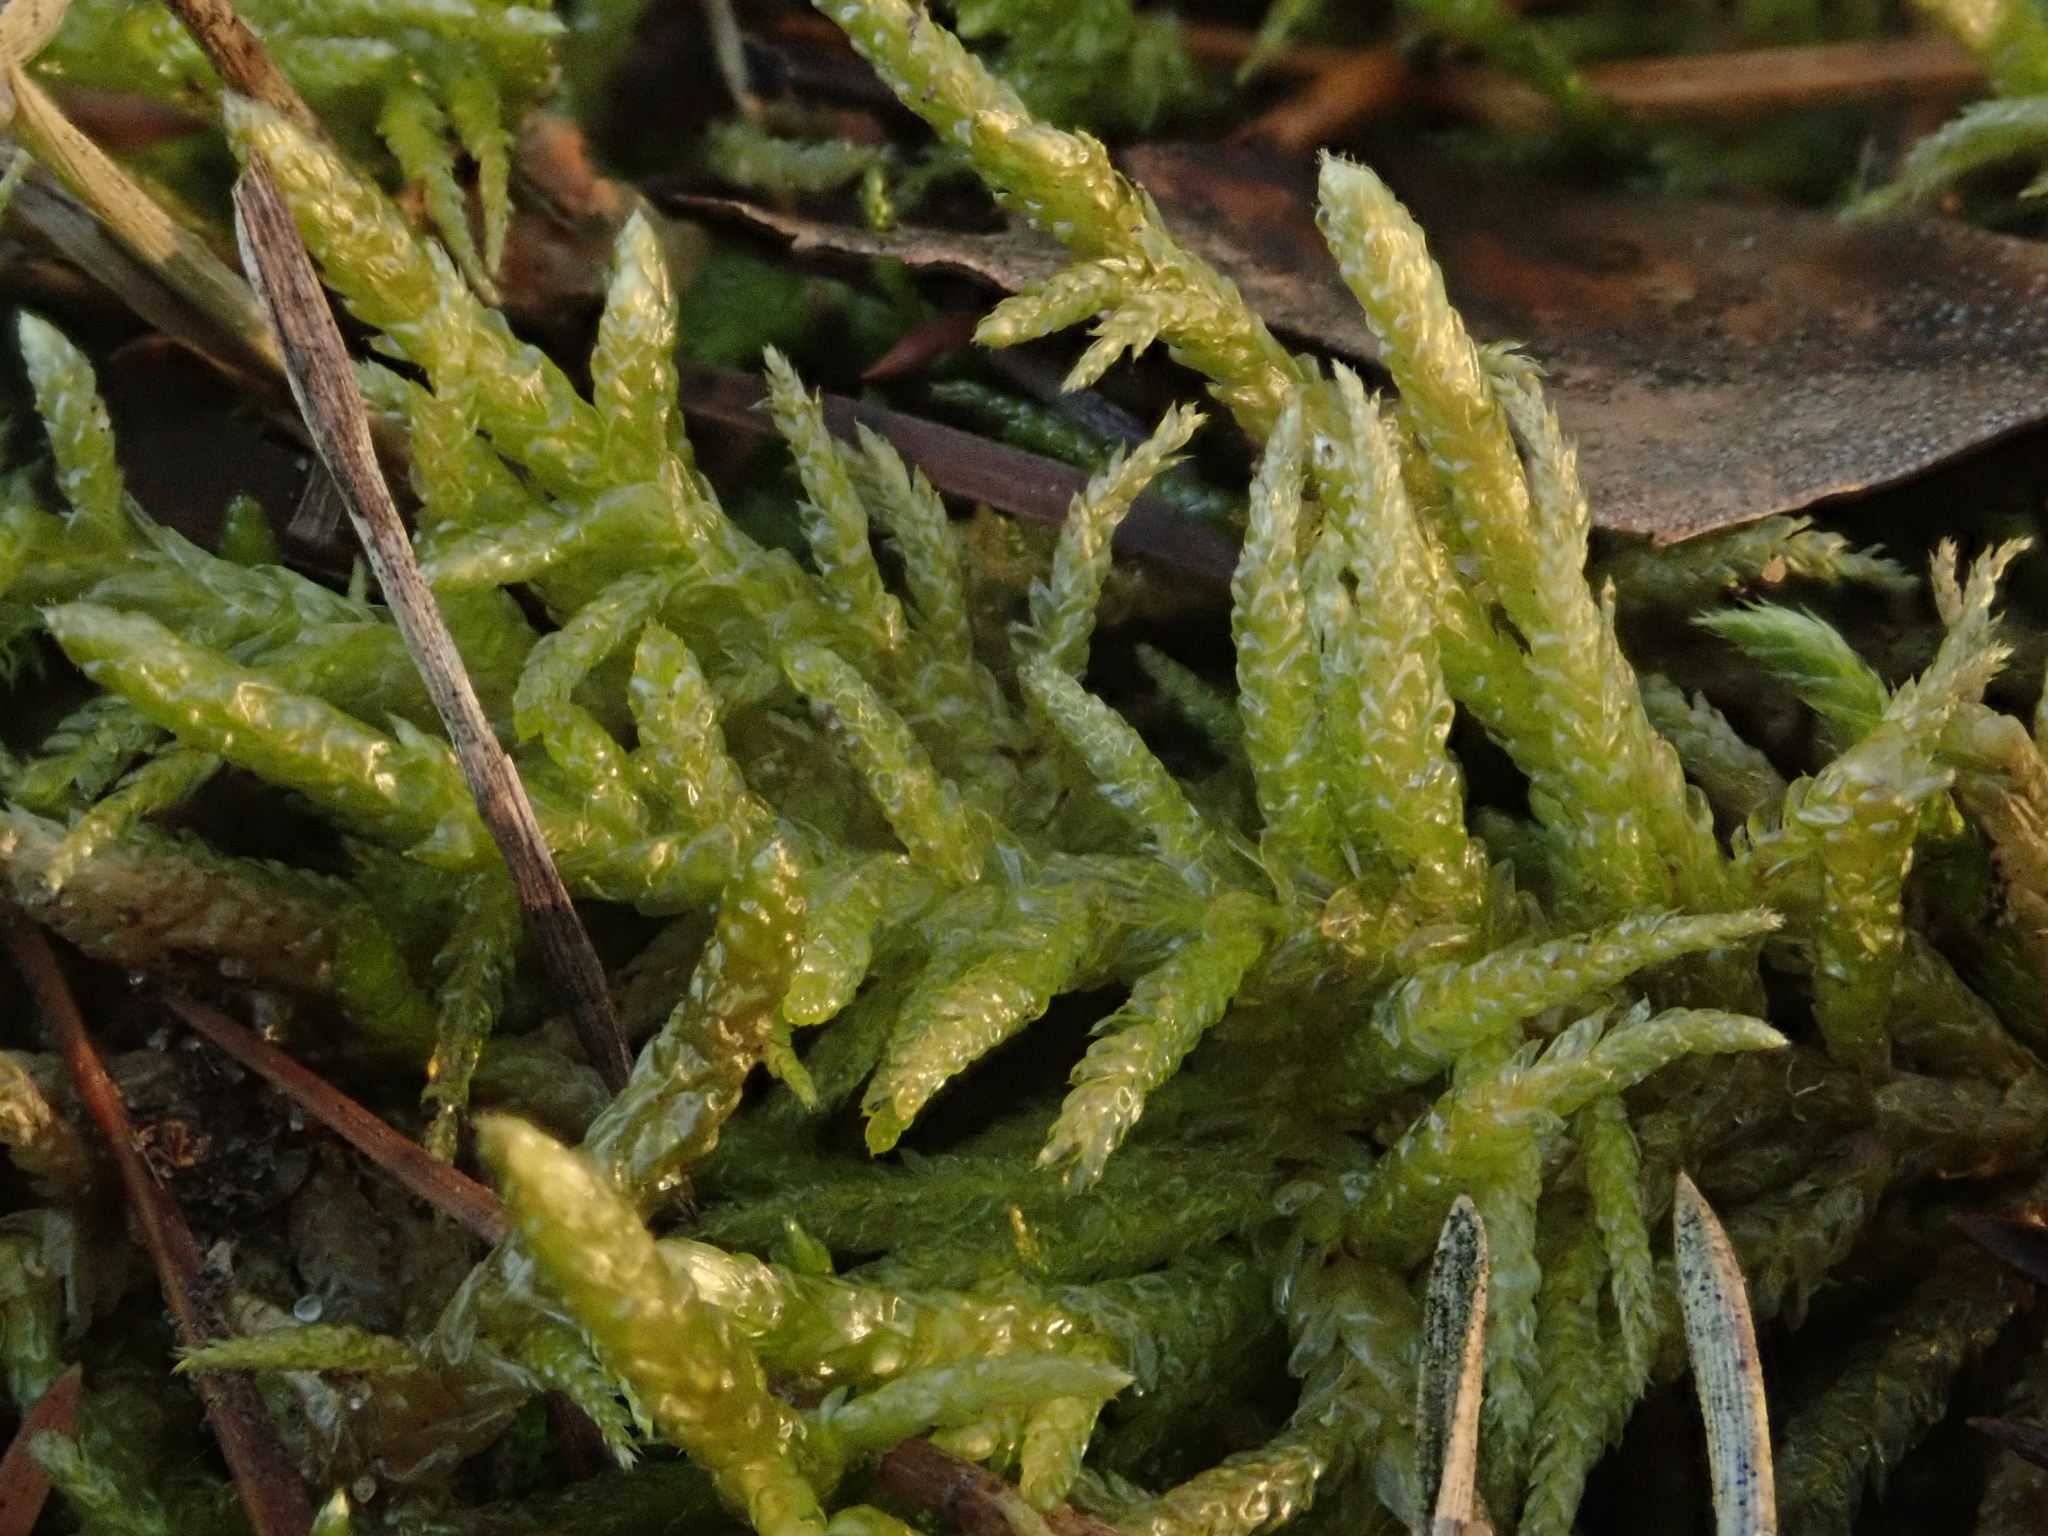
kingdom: Plantae
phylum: Bryophyta
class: Bryopsida
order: Hypnales
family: Brachytheciaceae
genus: Pseudoscleropodium
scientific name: Pseudoscleropodium purum
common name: Neat feather-moss
